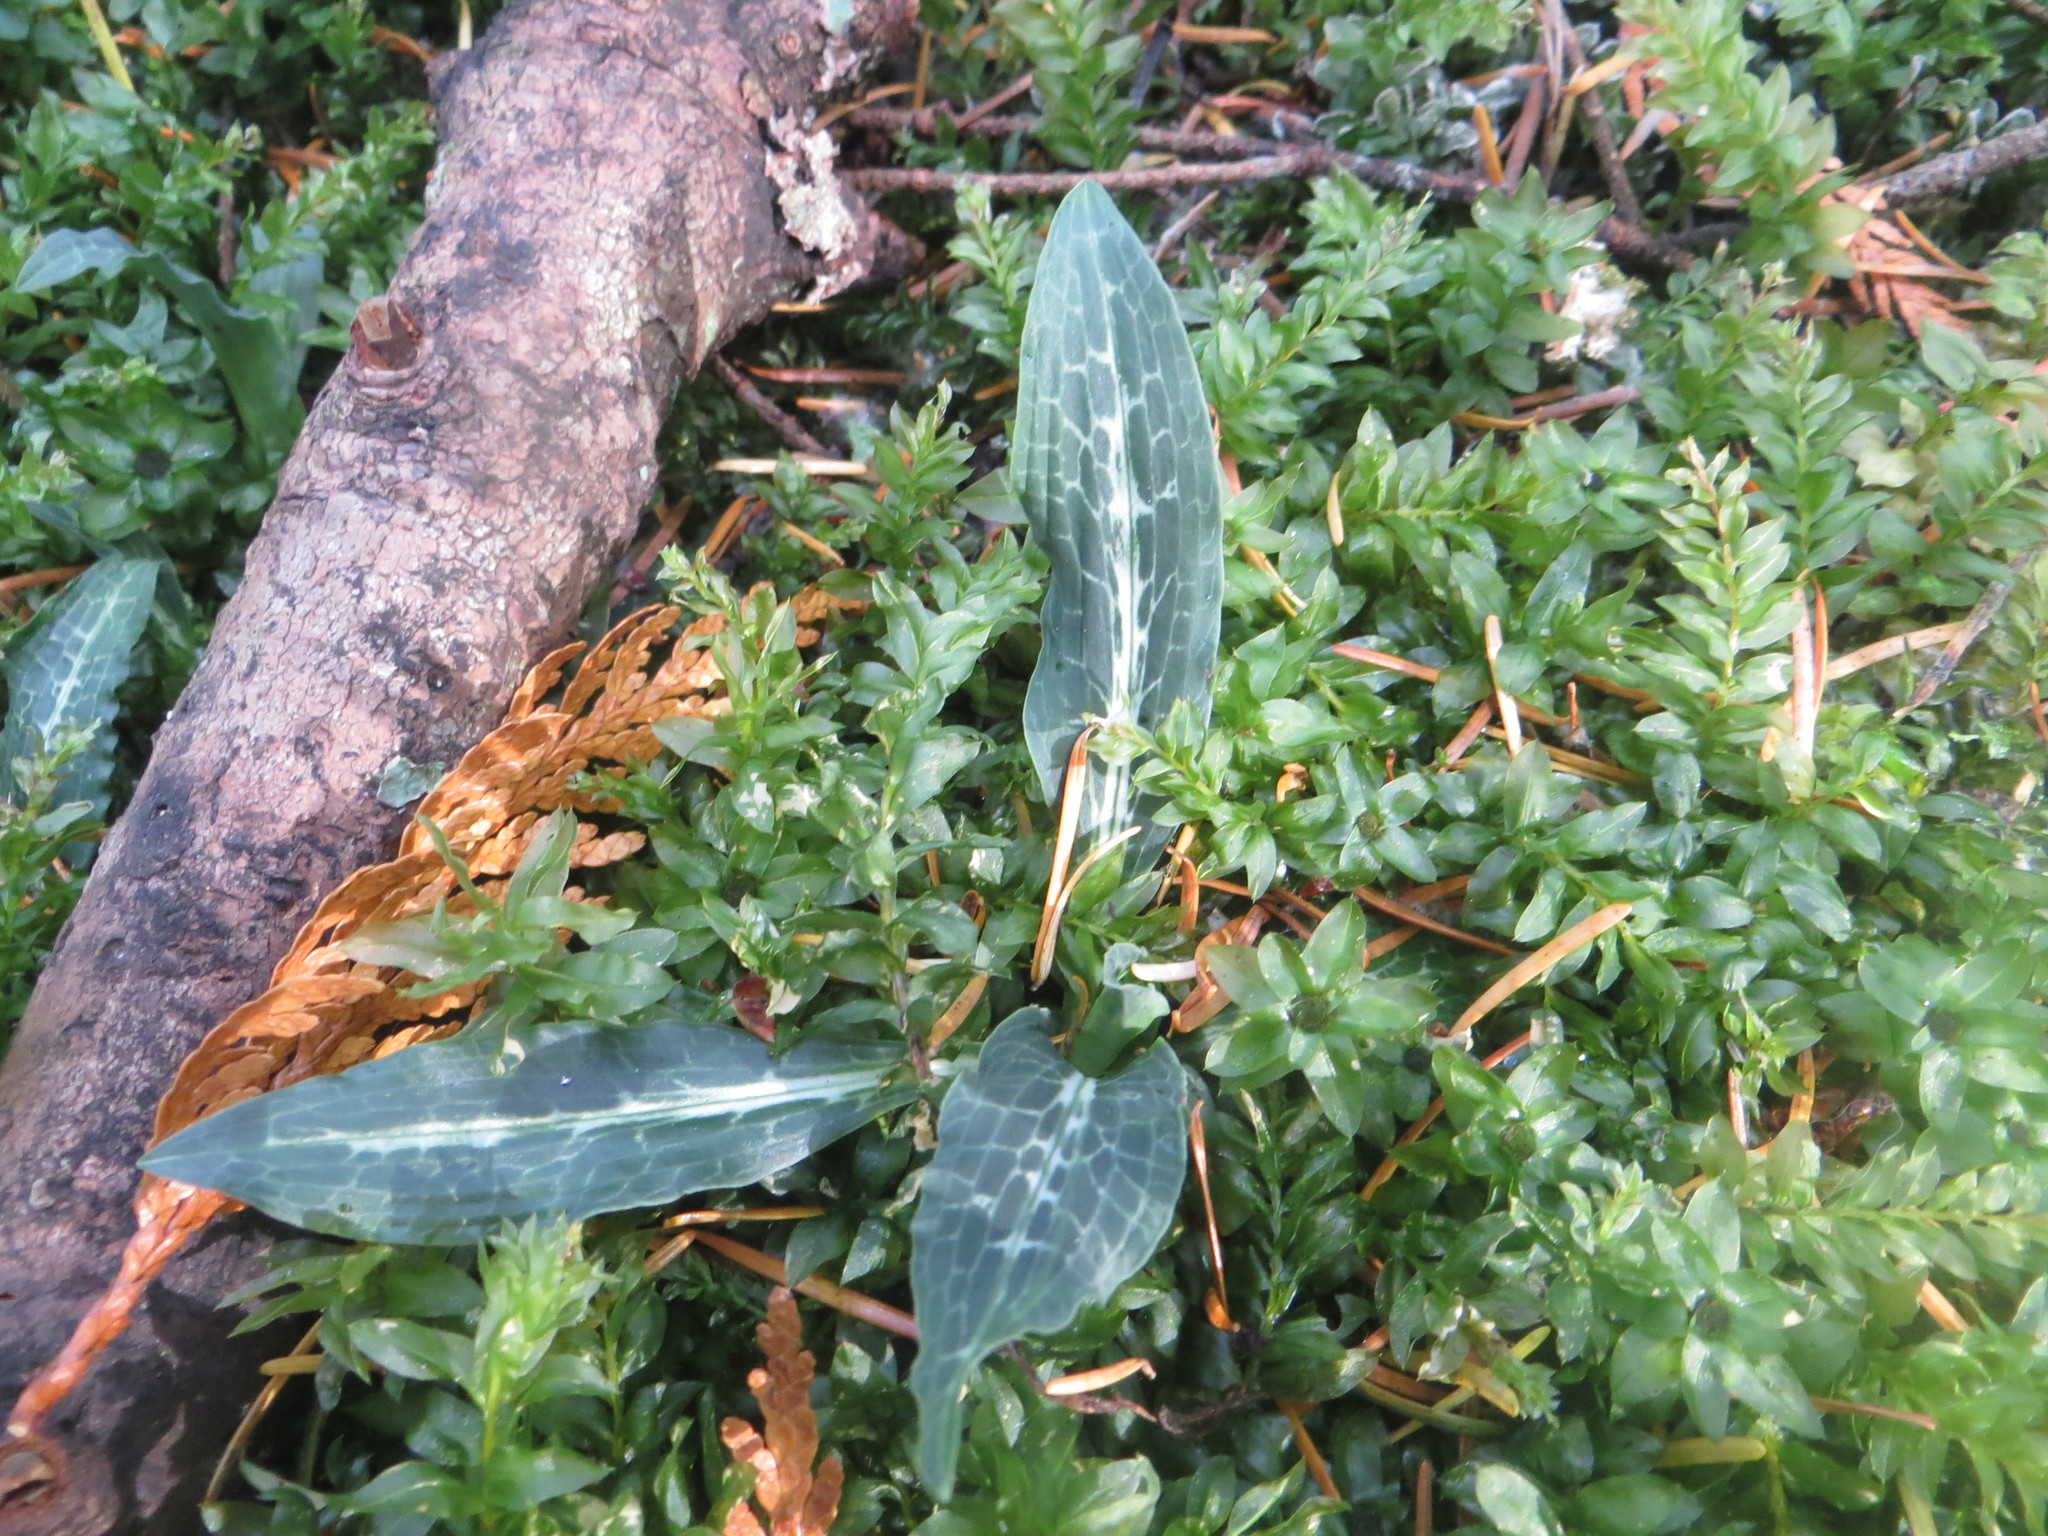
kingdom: Plantae
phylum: Tracheophyta
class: Liliopsida
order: Asparagales
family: Orchidaceae
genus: Goodyera
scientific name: Goodyera oblongifolia
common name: Giant rattlesnake-plantain
